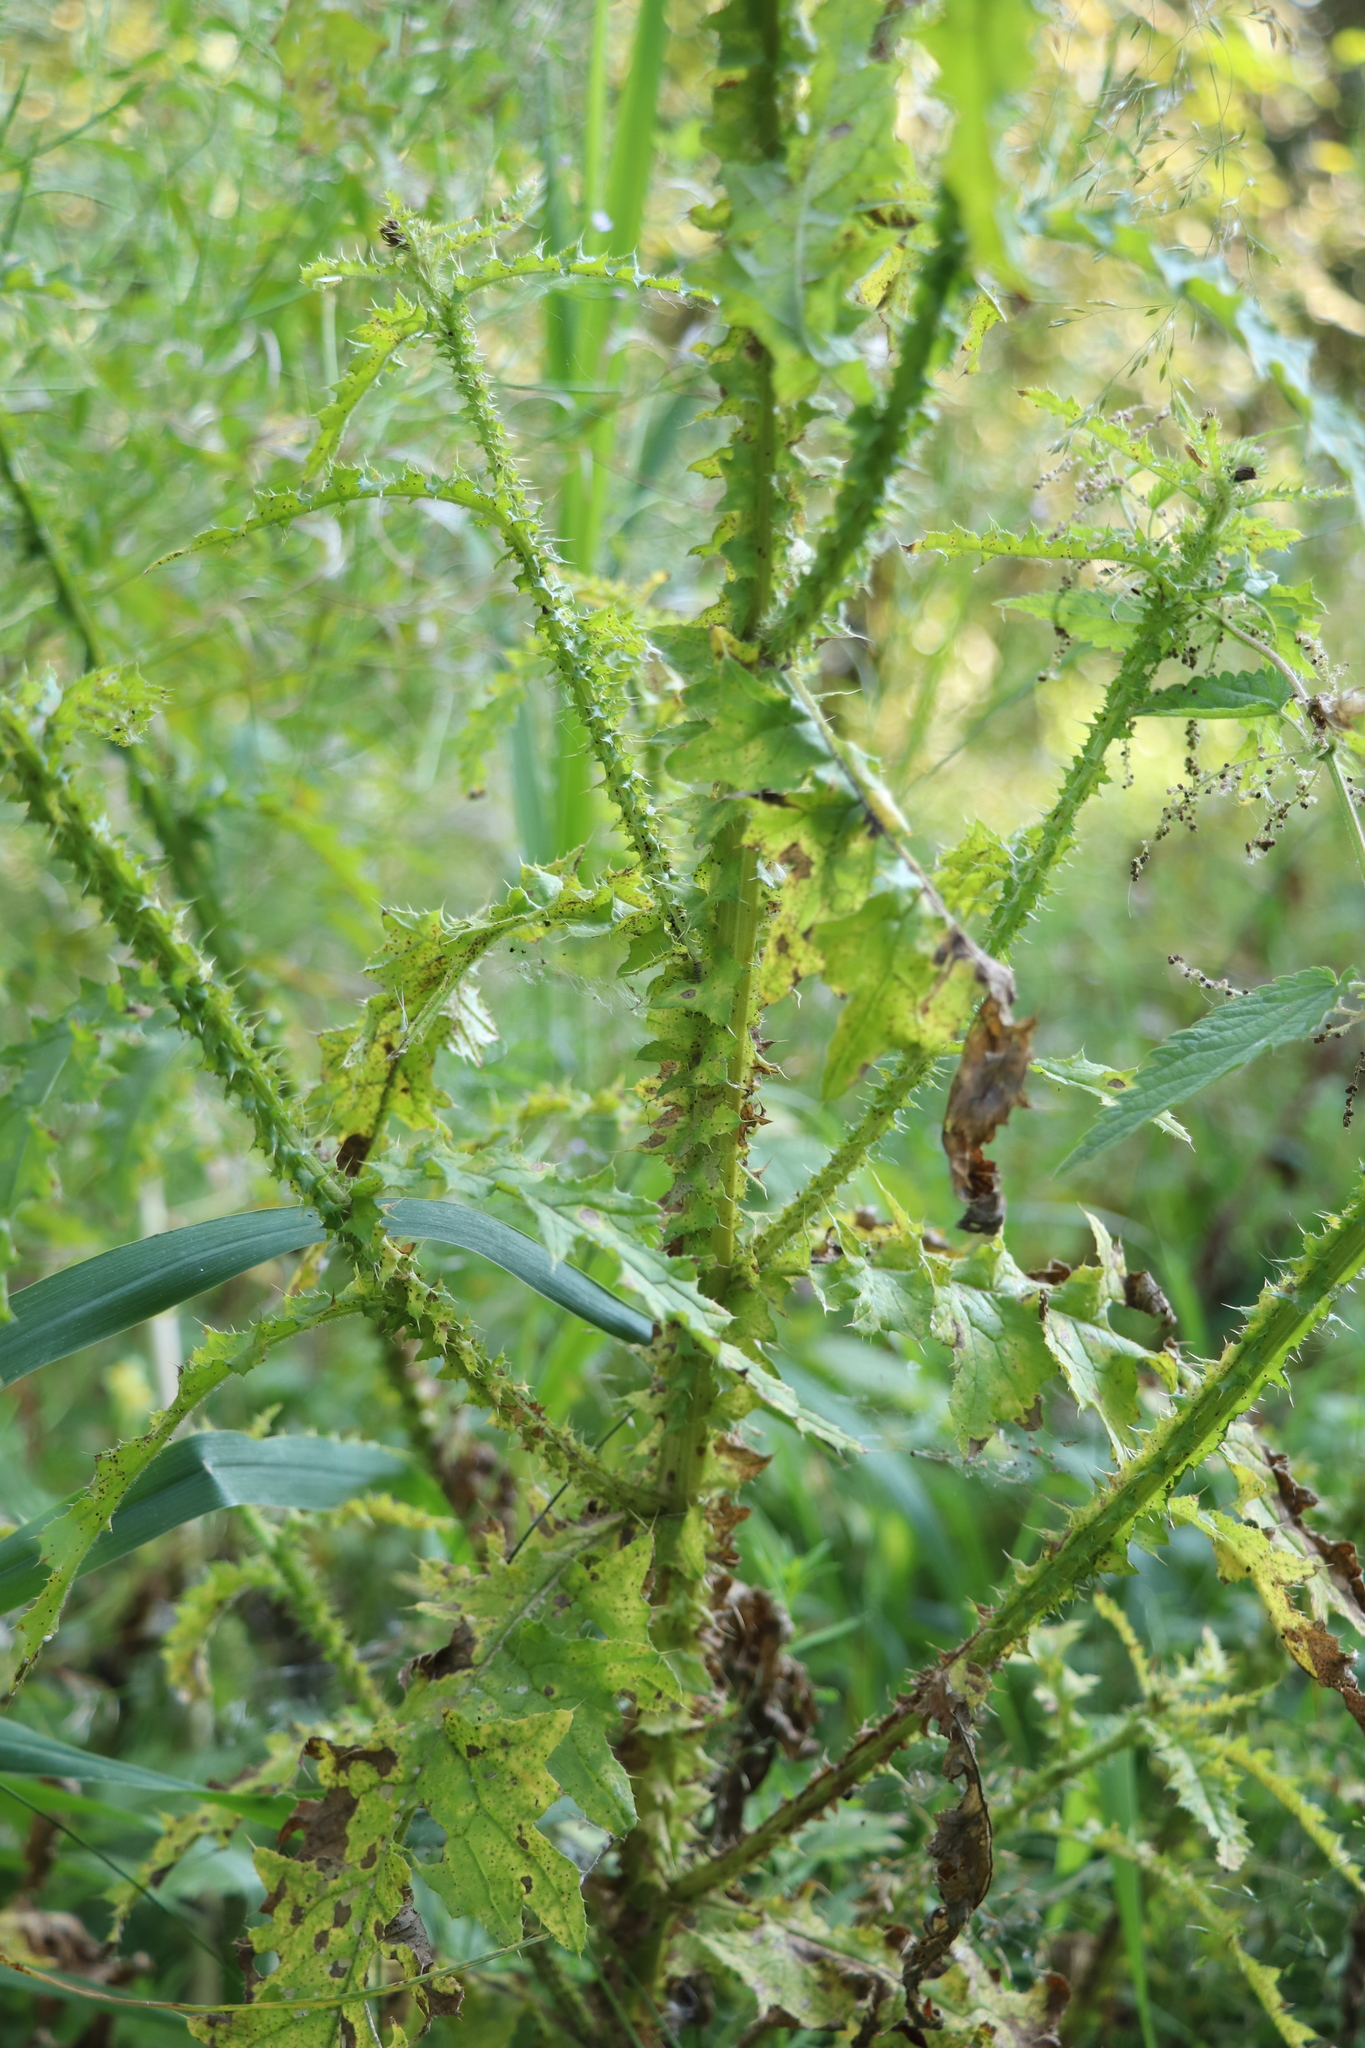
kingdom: Plantae
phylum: Tracheophyta
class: Magnoliopsida
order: Asterales
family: Asteraceae
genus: Carduus
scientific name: Carduus crispus
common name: Welted thistle
